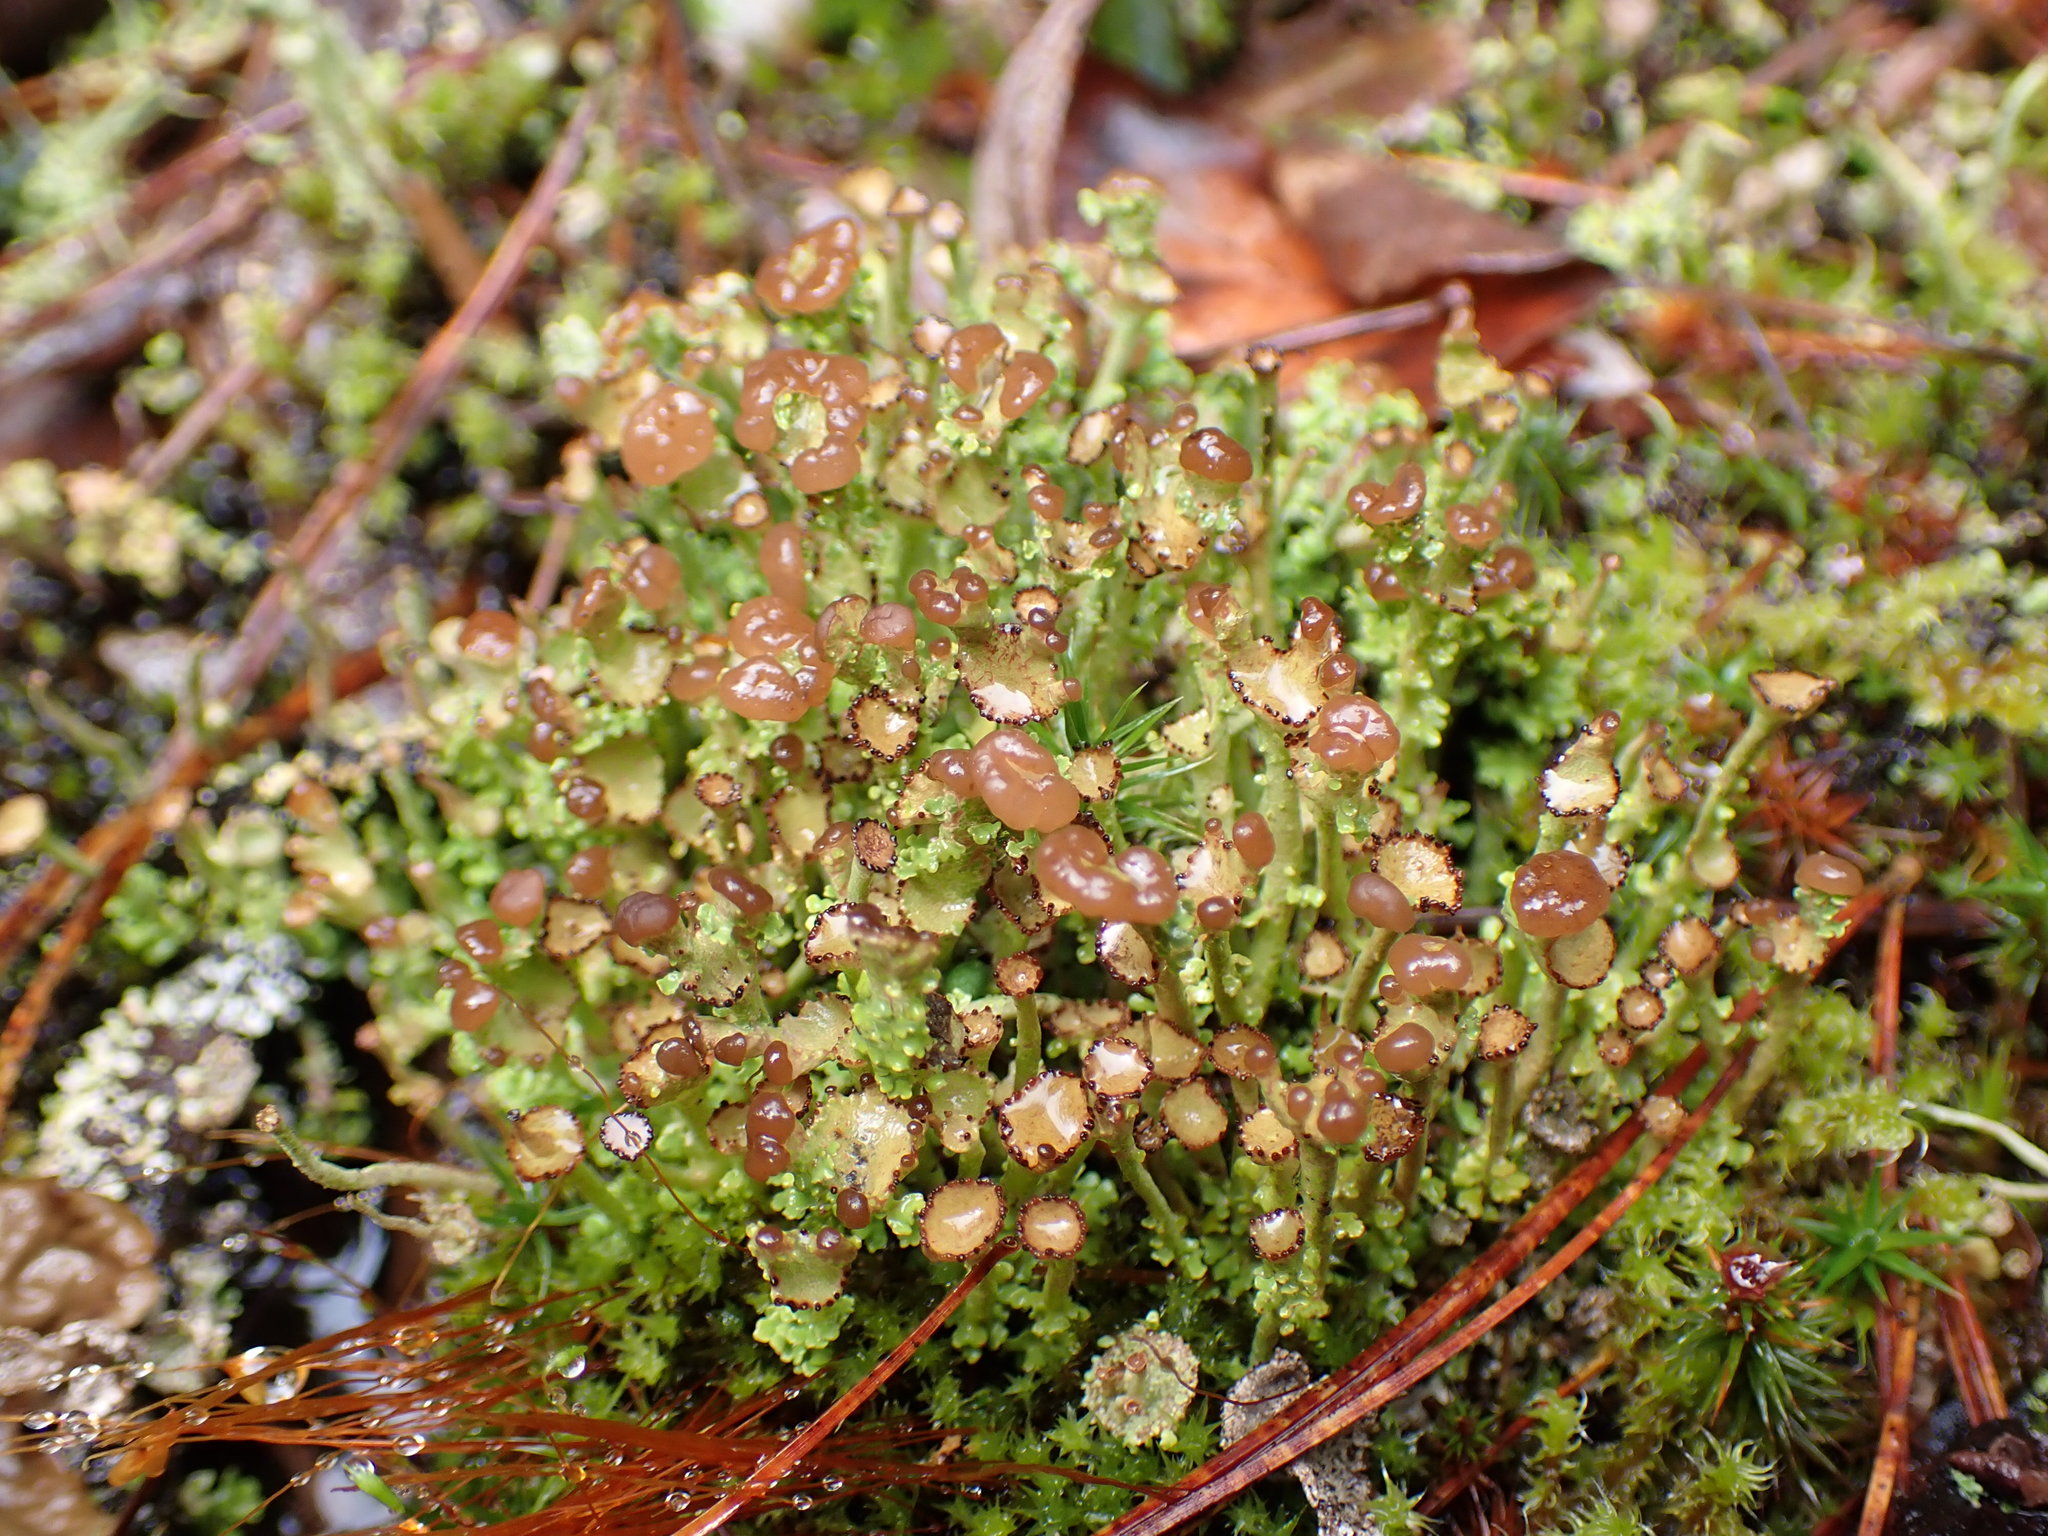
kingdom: Fungi
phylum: Ascomycota
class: Lecanoromycetes
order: Lecanorales
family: Cladoniaceae
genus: Cladonia
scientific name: Cladonia gracilis
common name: Smooth clad lichen
